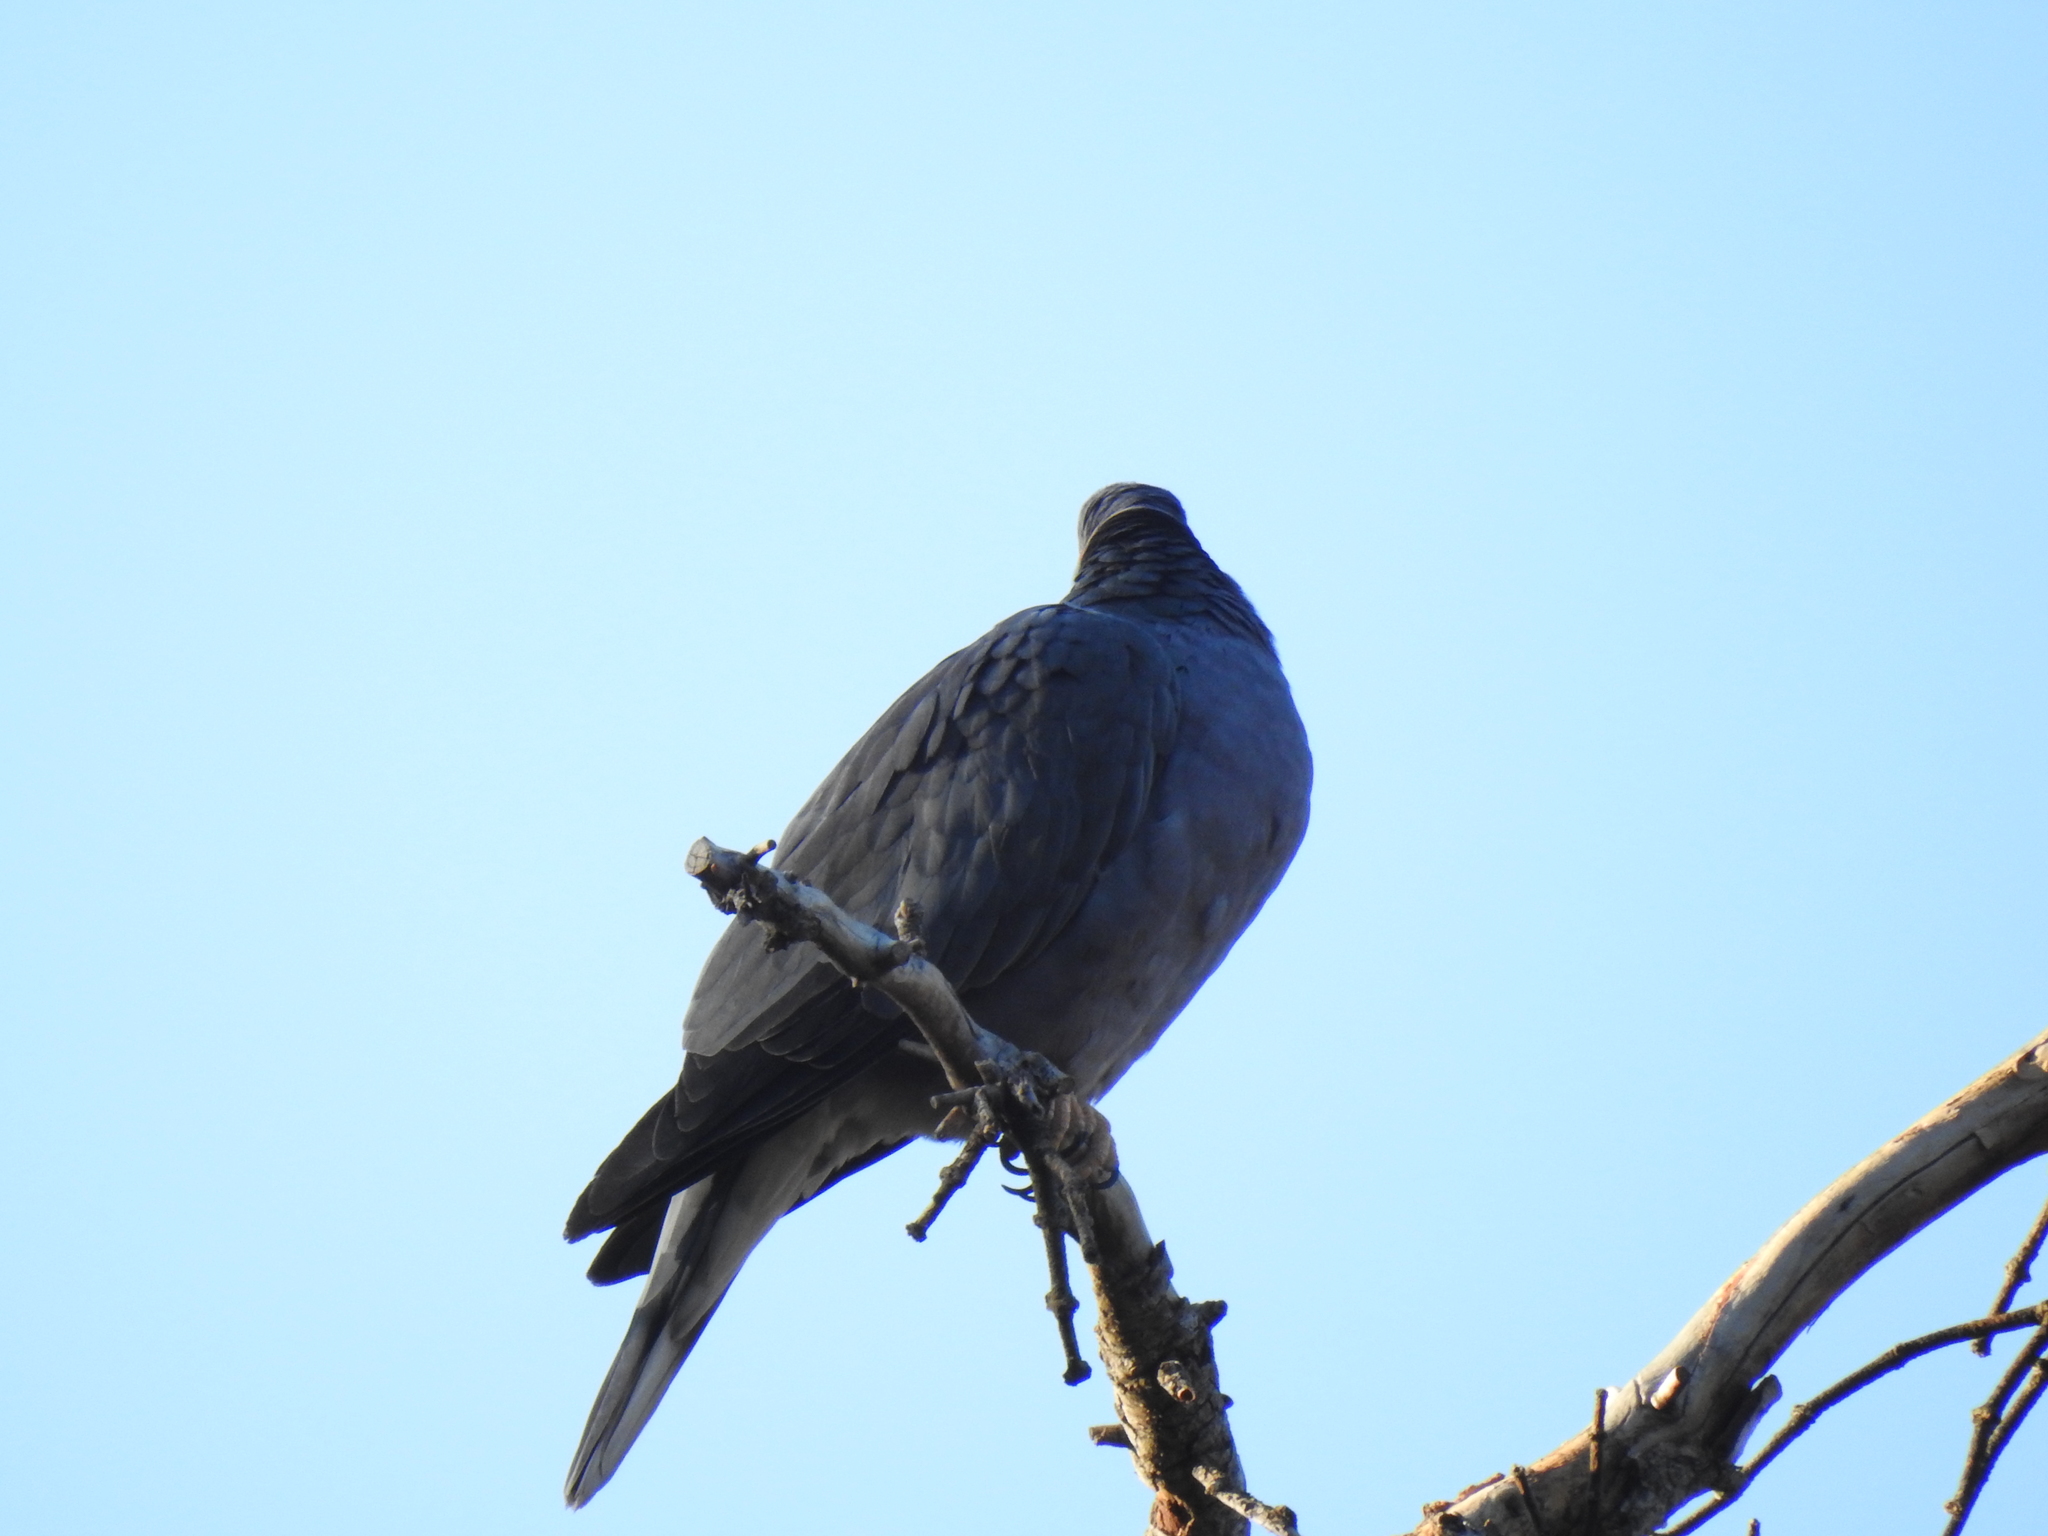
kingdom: Animalia
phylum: Chordata
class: Aves
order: Columbiformes
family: Columbidae
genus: Patagioenas
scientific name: Patagioenas fasciata
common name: Band-tailed pigeon
